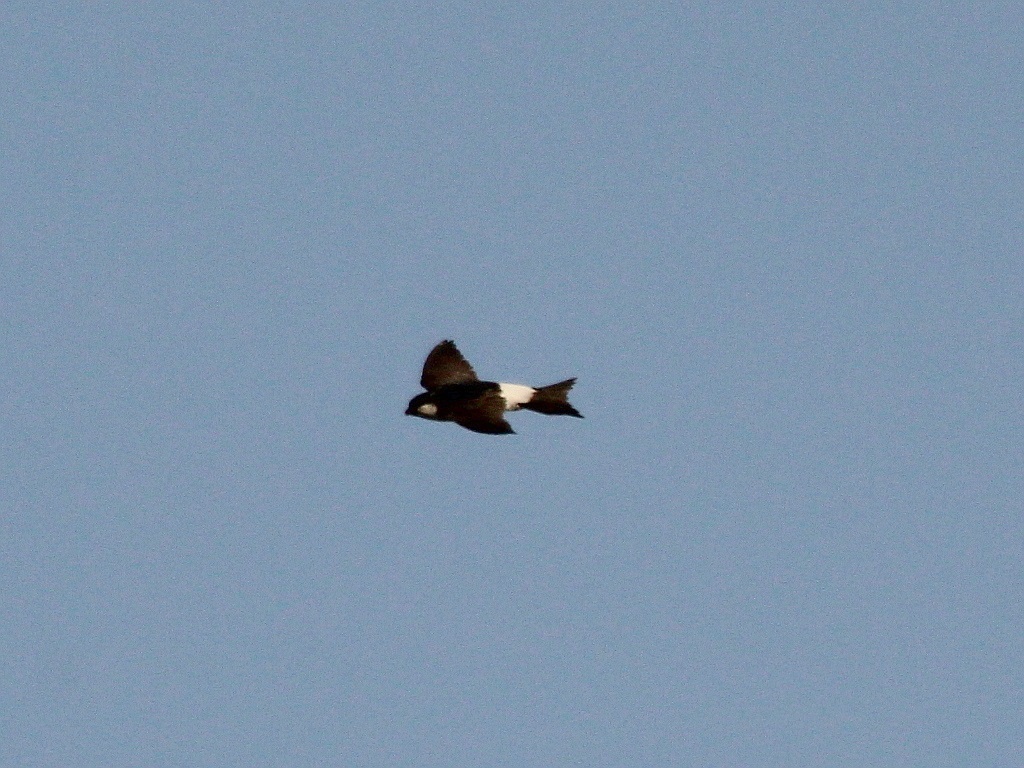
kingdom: Animalia
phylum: Chordata
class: Aves
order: Passeriformes
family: Hirundinidae
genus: Delichon
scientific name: Delichon urbicum
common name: Common house martin
